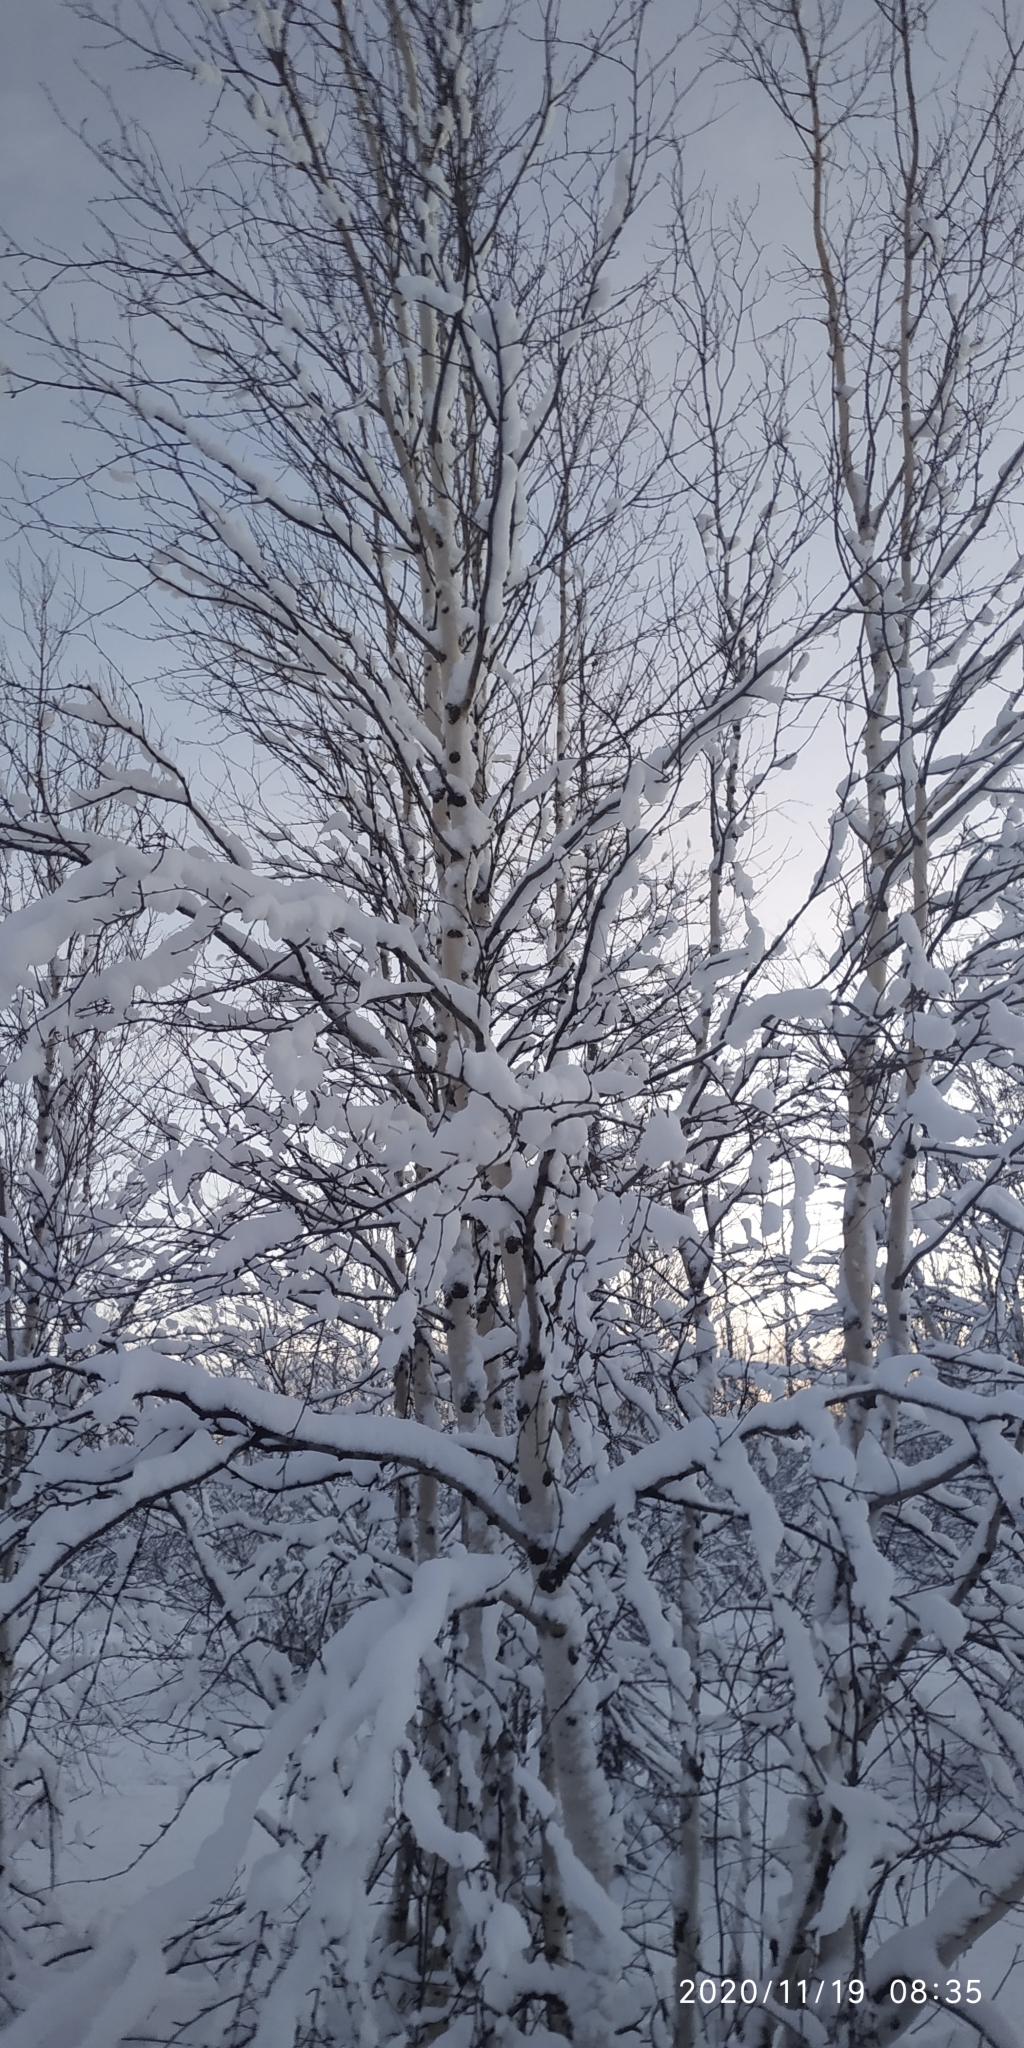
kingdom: Plantae
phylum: Tracheophyta
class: Magnoliopsida
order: Fagales
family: Betulaceae
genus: Betula
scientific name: Betula pubescens
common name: Downy birch
